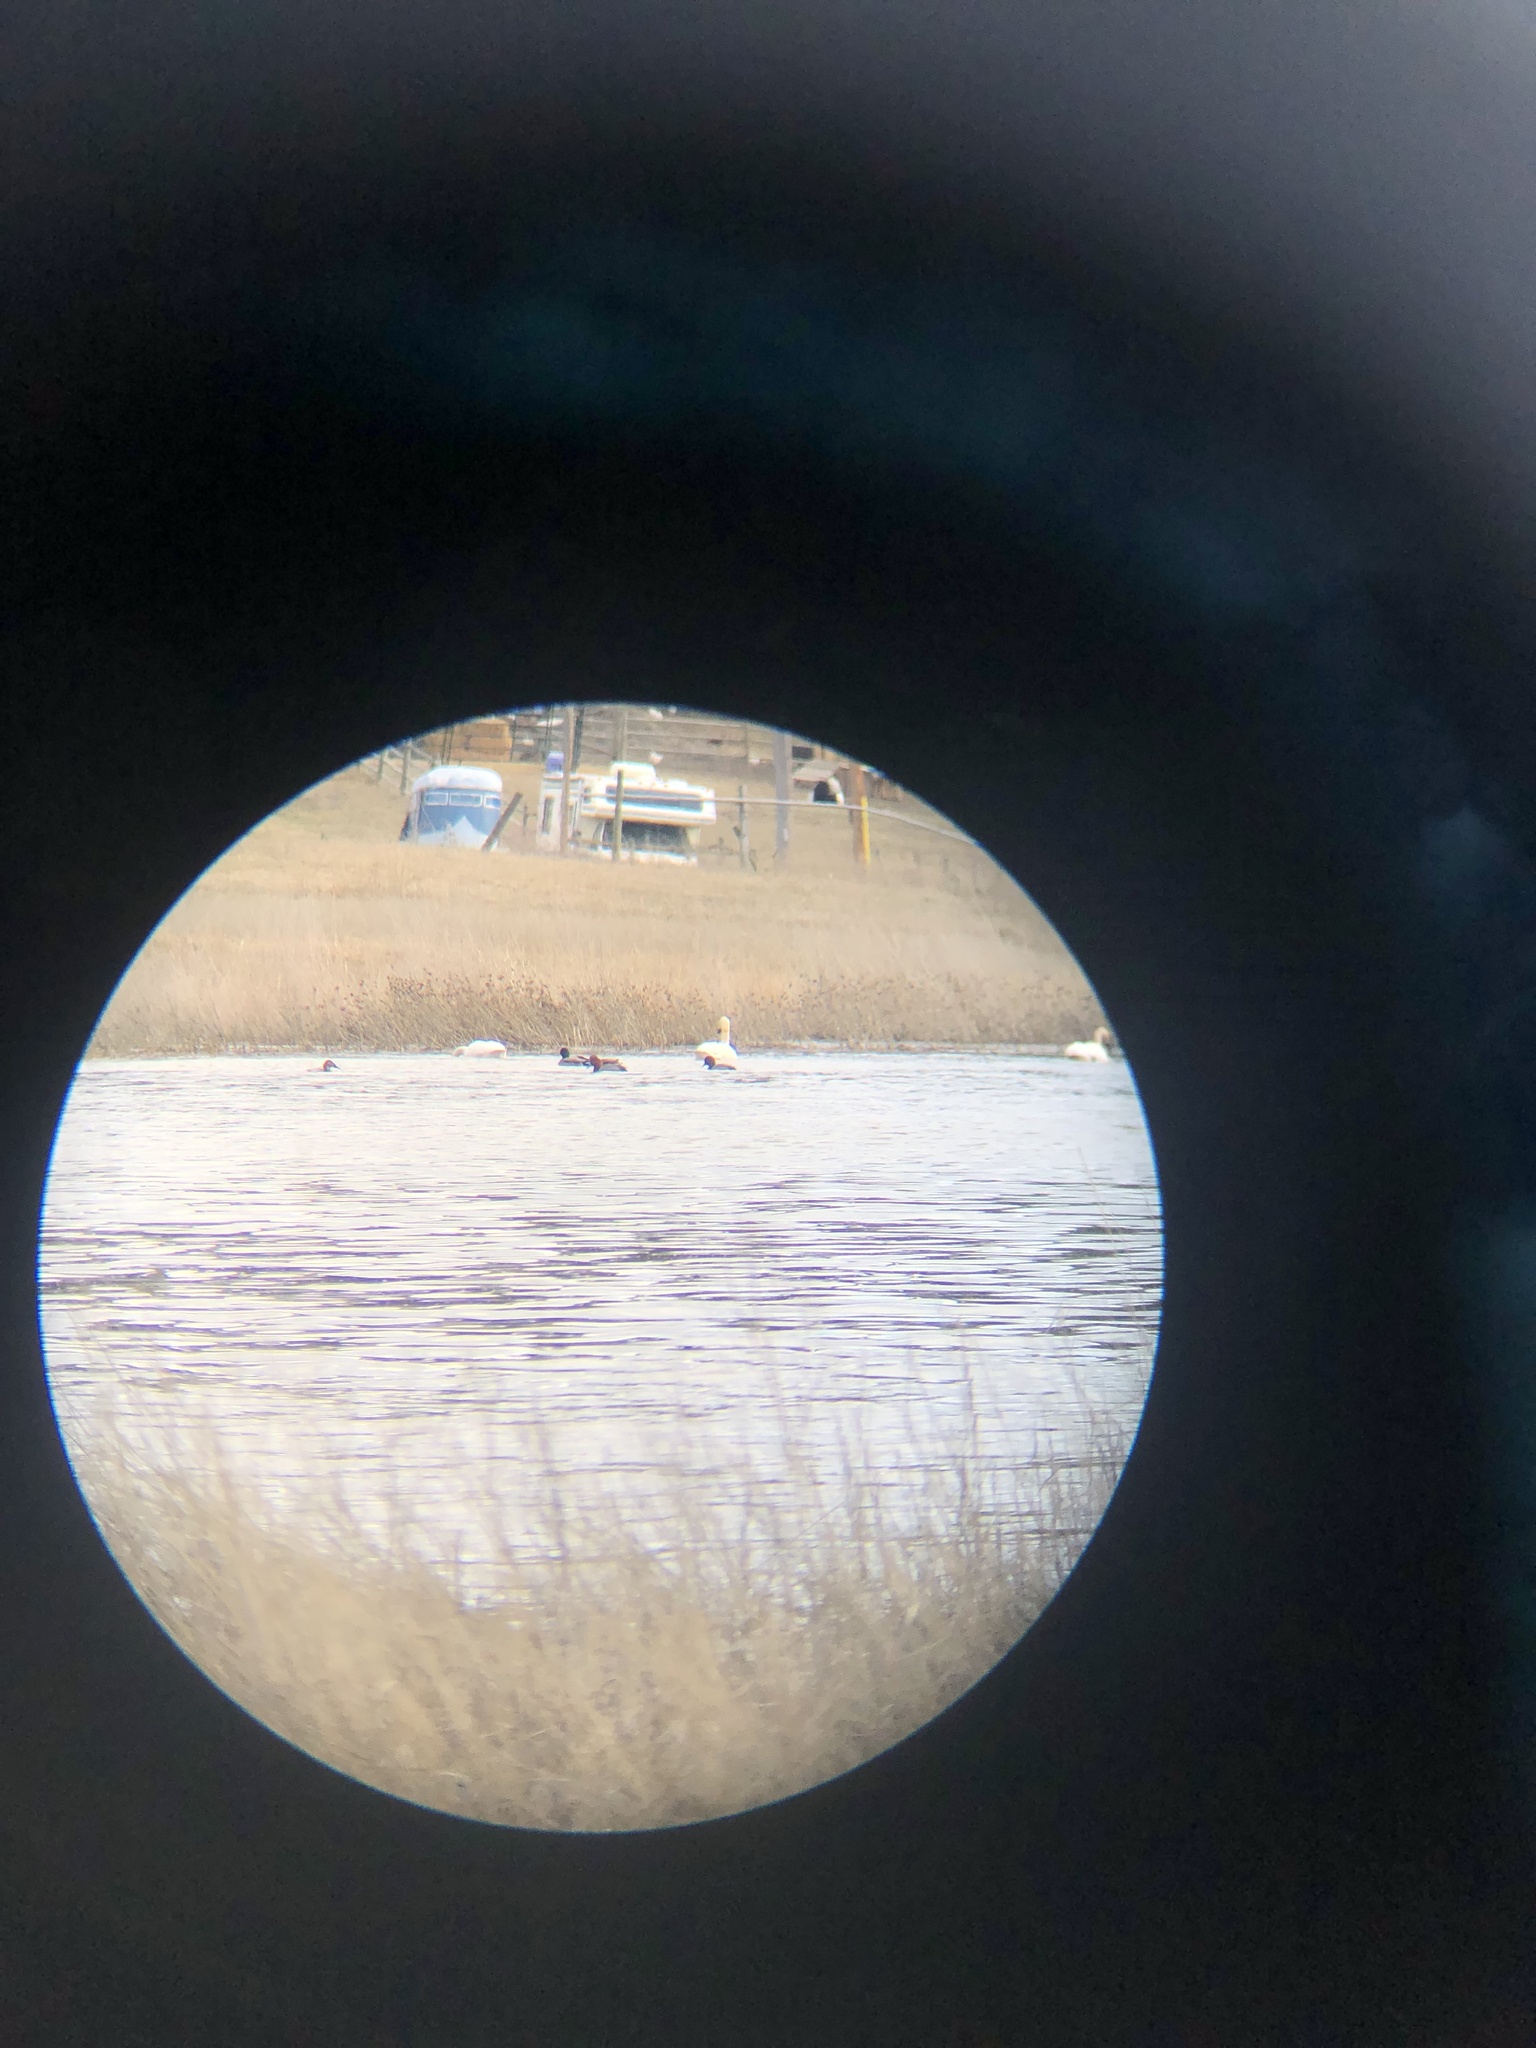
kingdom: Animalia
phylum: Chordata
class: Aves
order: Anseriformes
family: Anatidae
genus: Aythya
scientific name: Aythya valisineria
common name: Canvasback
